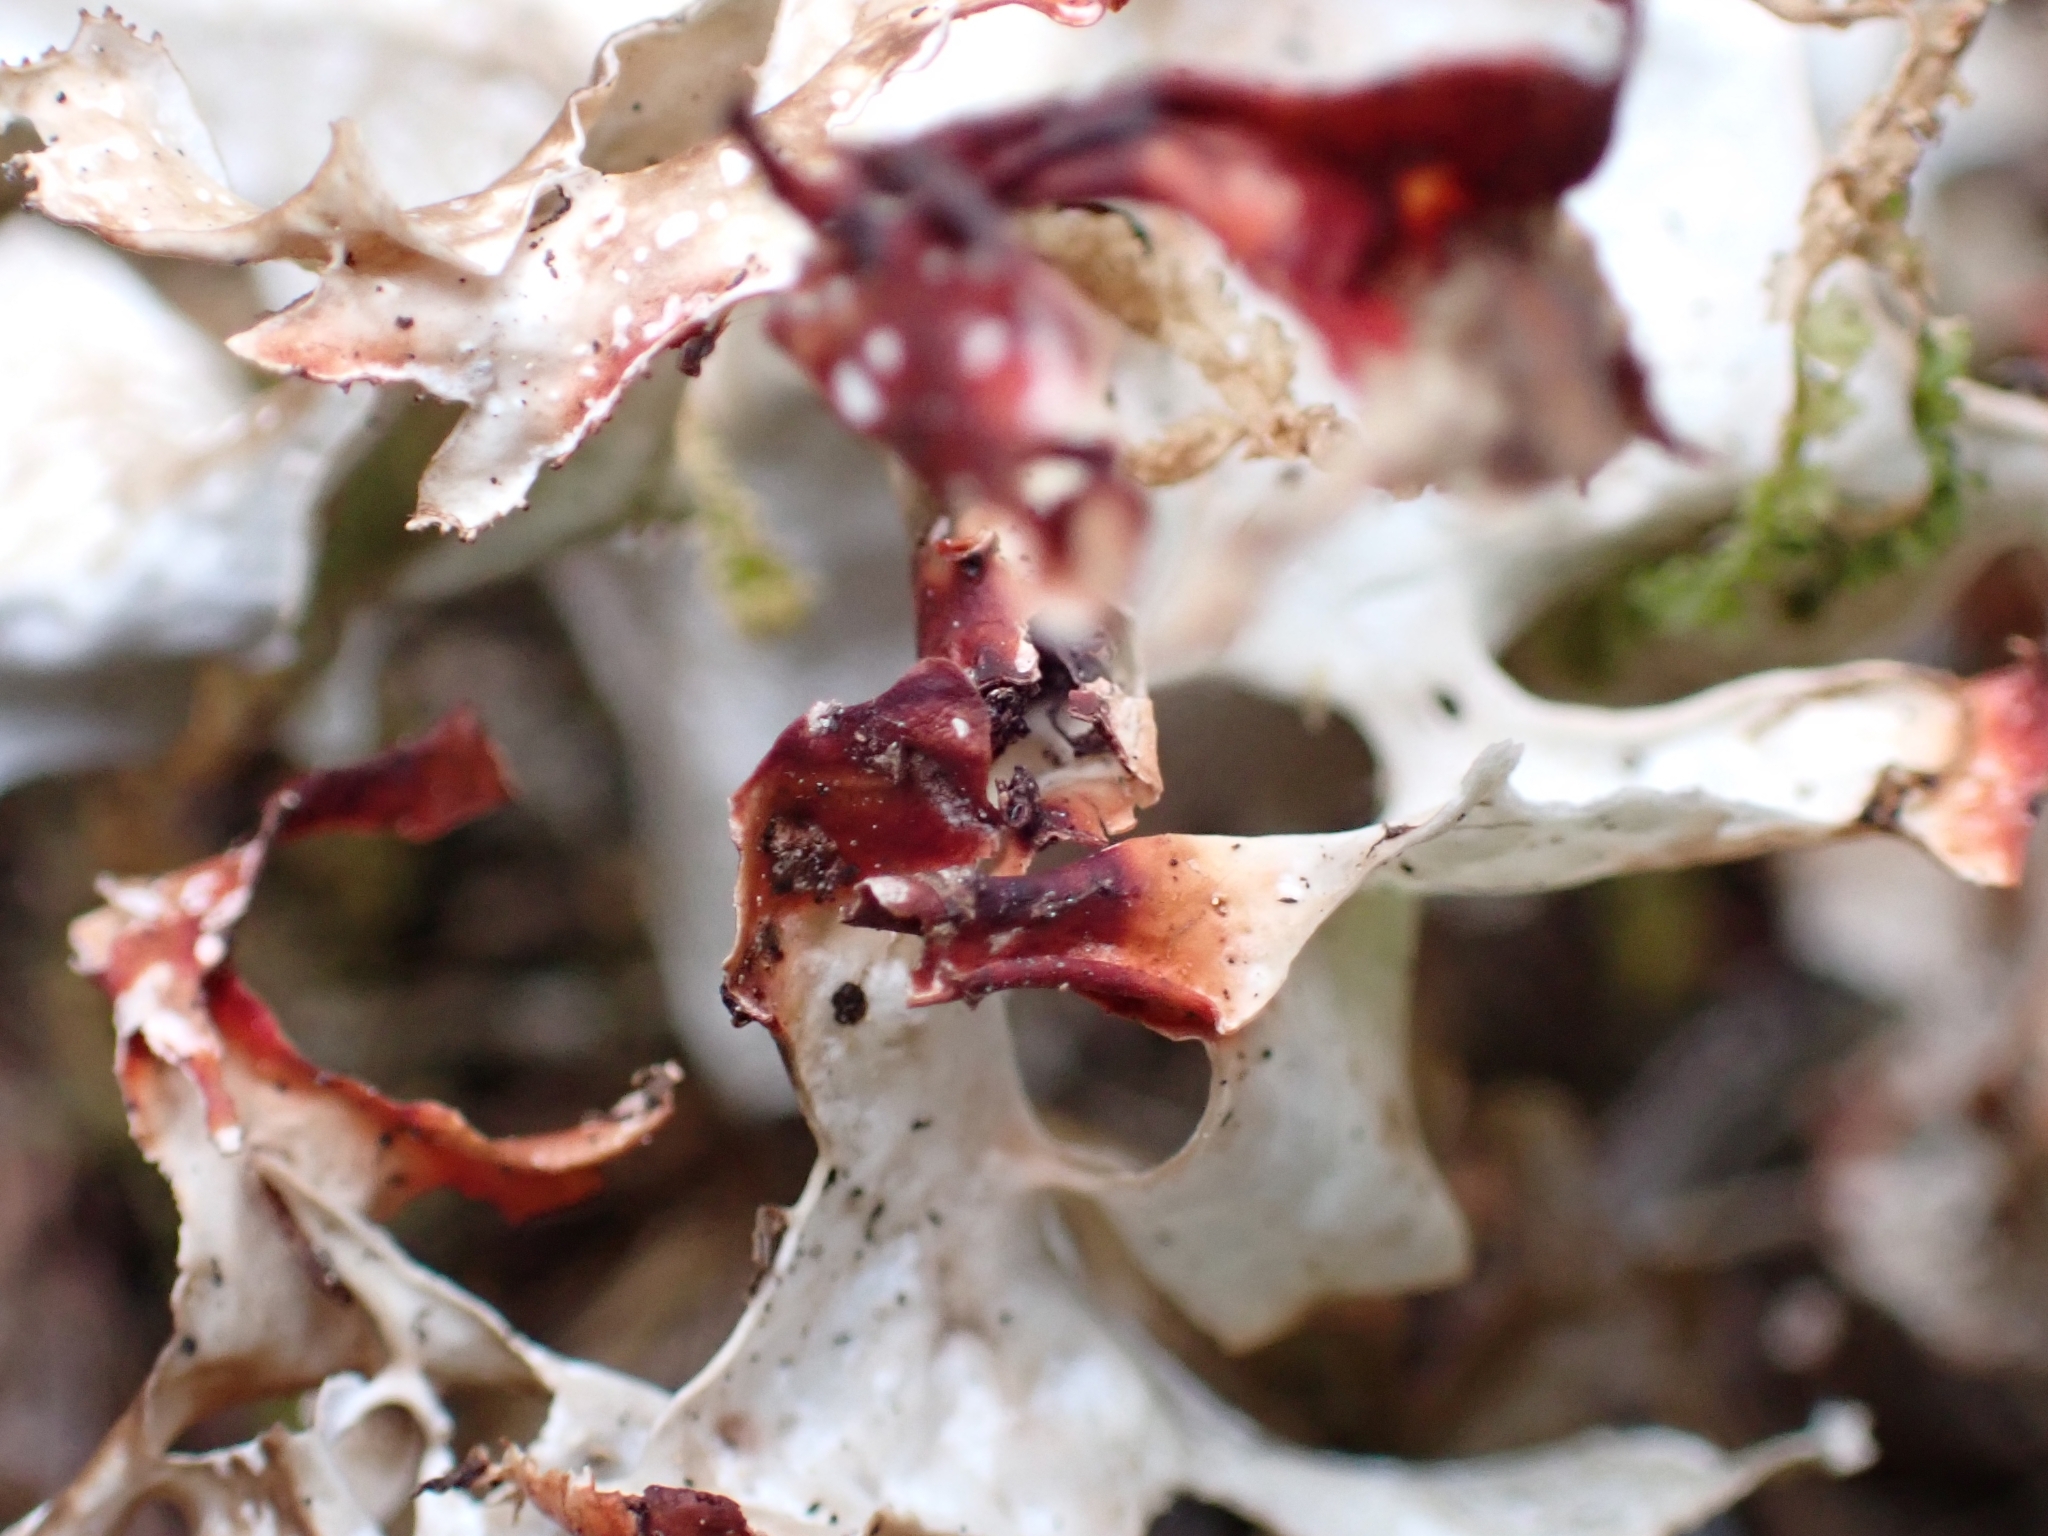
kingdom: Fungi
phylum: Ascomycota
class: Lecanoromycetes
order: Lecanorales
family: Parmeliaceae
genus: Cetraria
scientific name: Cetraria islandica
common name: Iceland lichen
